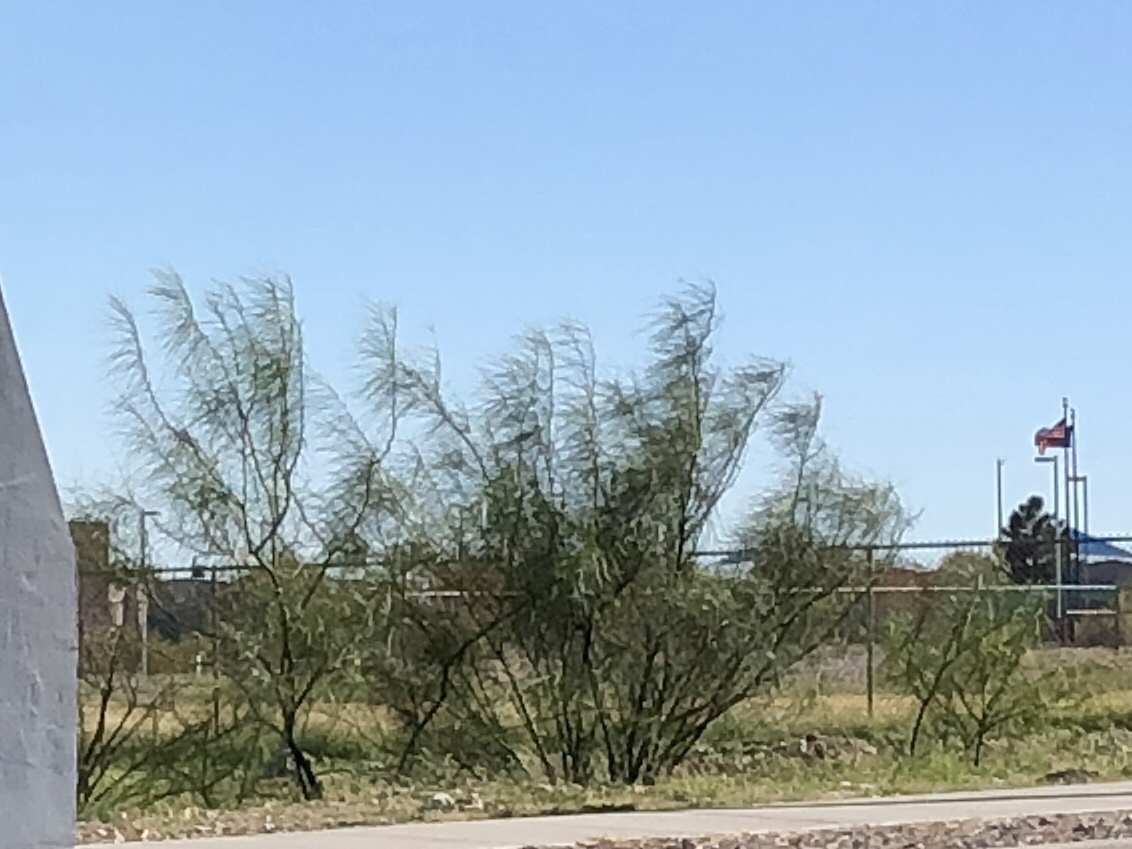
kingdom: Plantae
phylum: Tracheophyta
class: Magnoliopsida
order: Fabales
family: Fabaceae
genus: Parkinsonia
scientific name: Parkinsonia aculeata
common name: Jerusalem thorn
